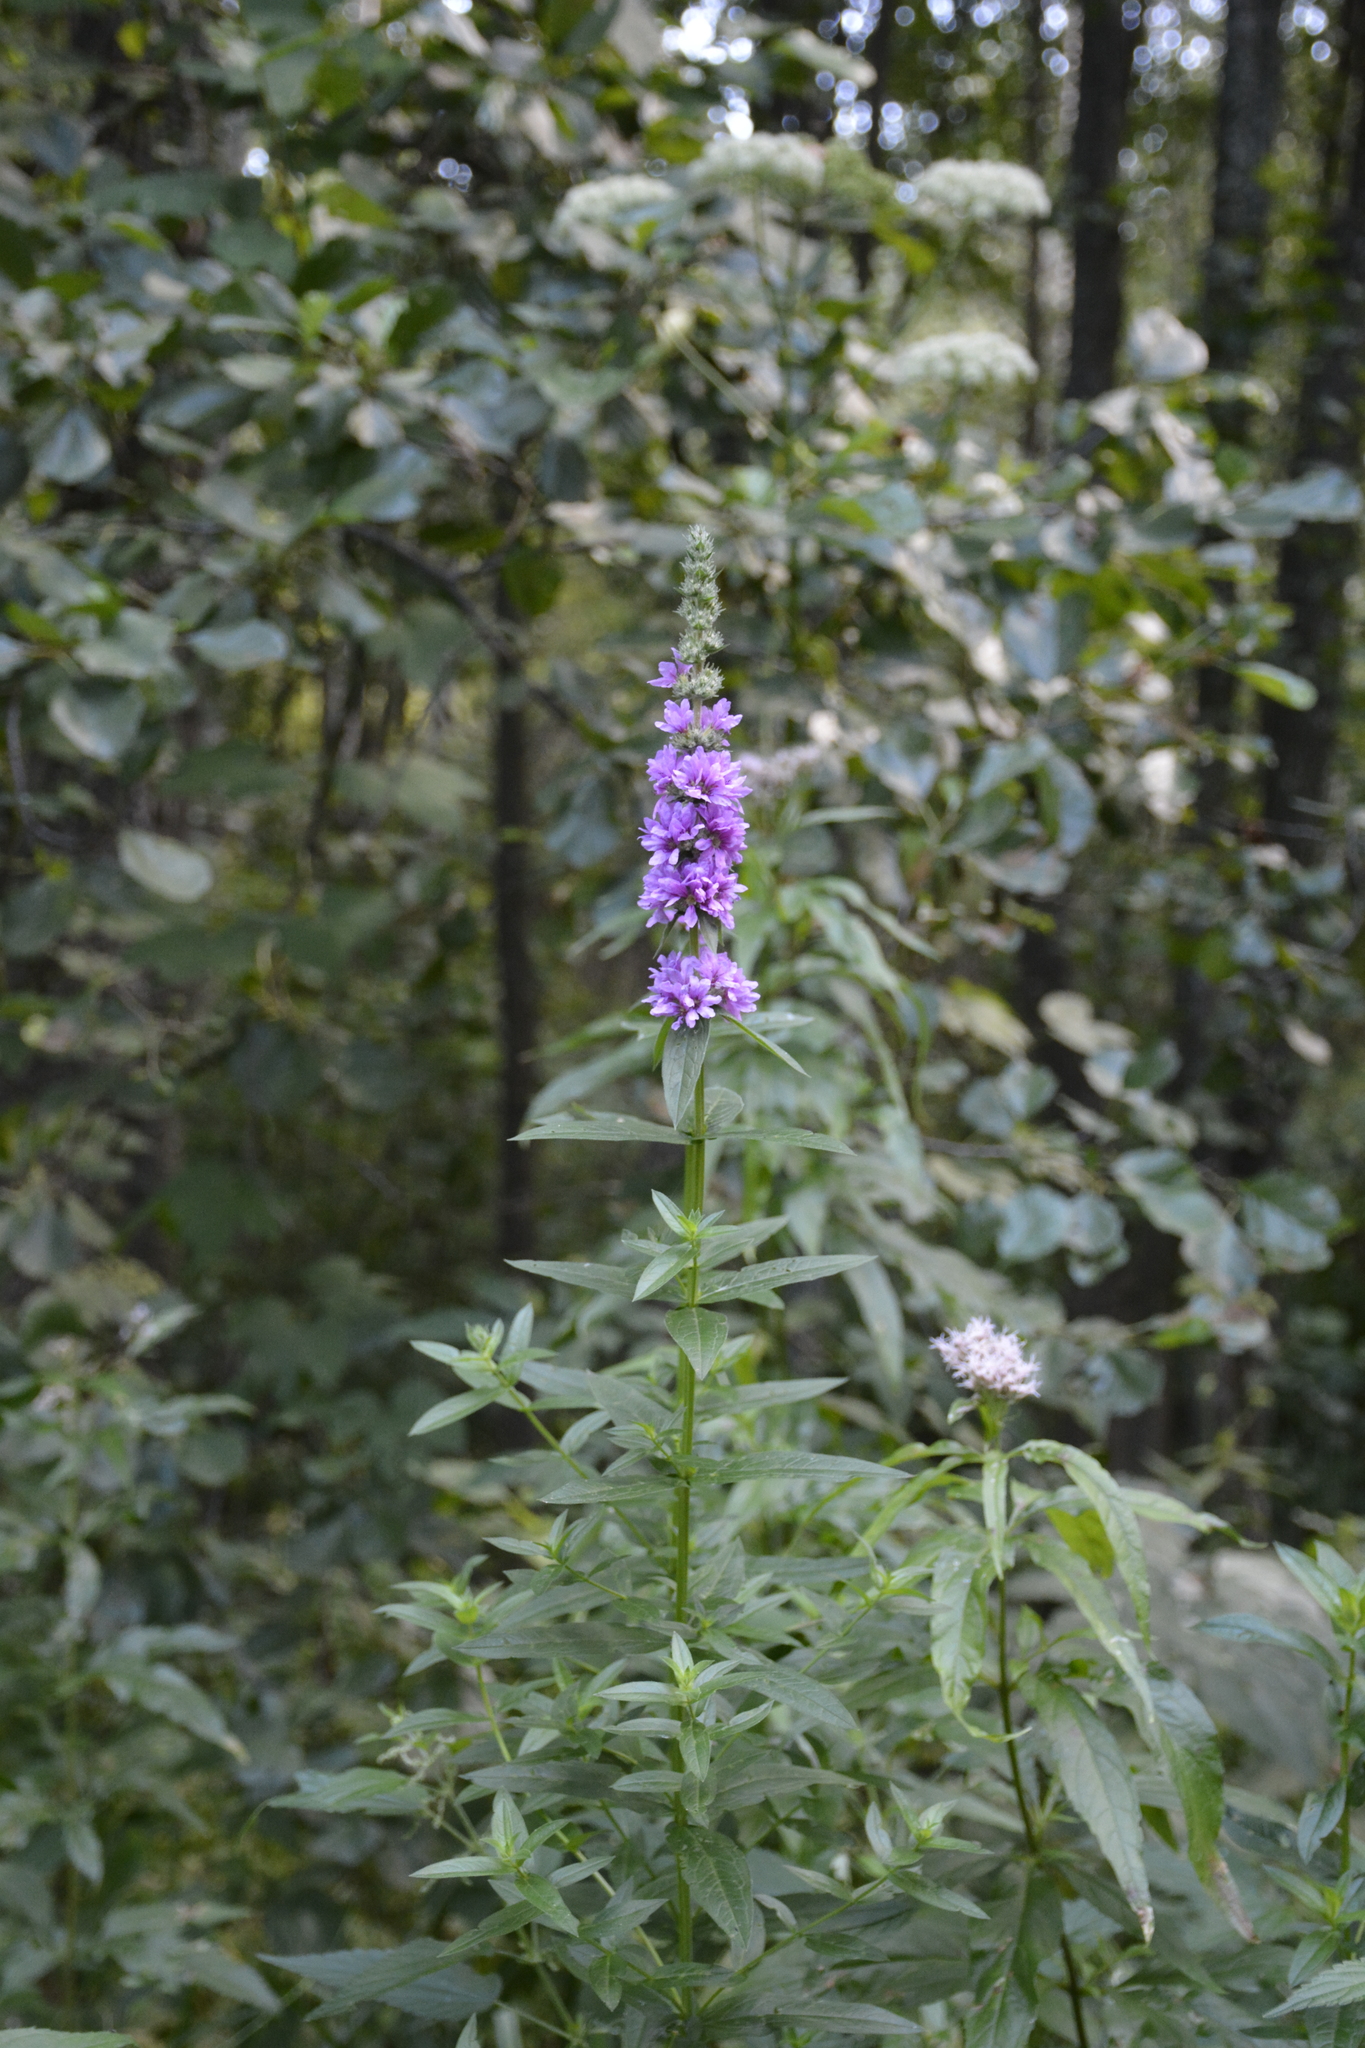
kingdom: Plantae
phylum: Tracheophyta
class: Magnoliopsida
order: Myrtales
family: Lythraceae
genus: Lythrum
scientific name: Lythrum salicaria
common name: Purple loosestrife
